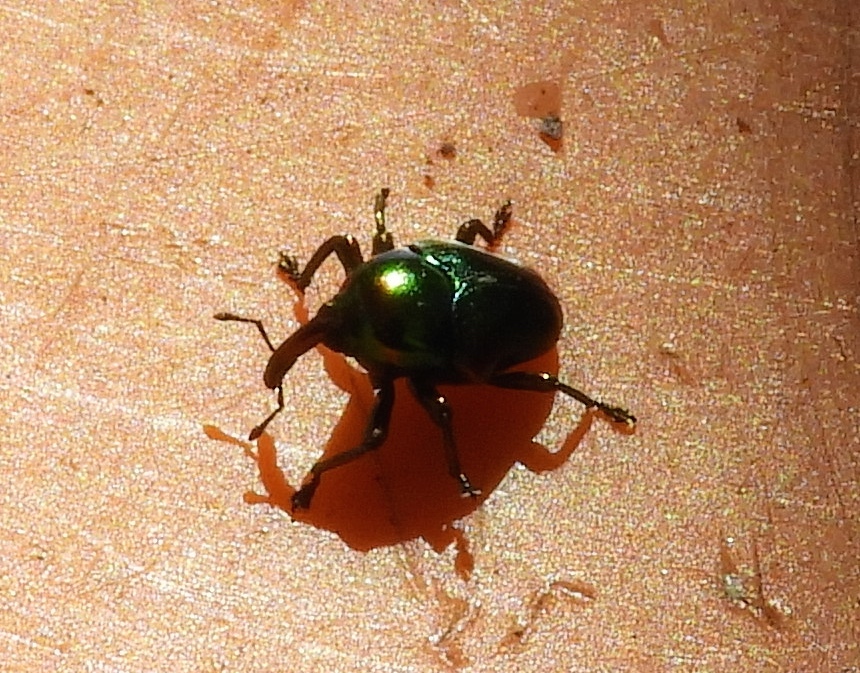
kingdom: Animalia
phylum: Arthropoda
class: Insecta
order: Coleoptera
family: Curculionidae
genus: Eurhinus
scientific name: Eurhinus
